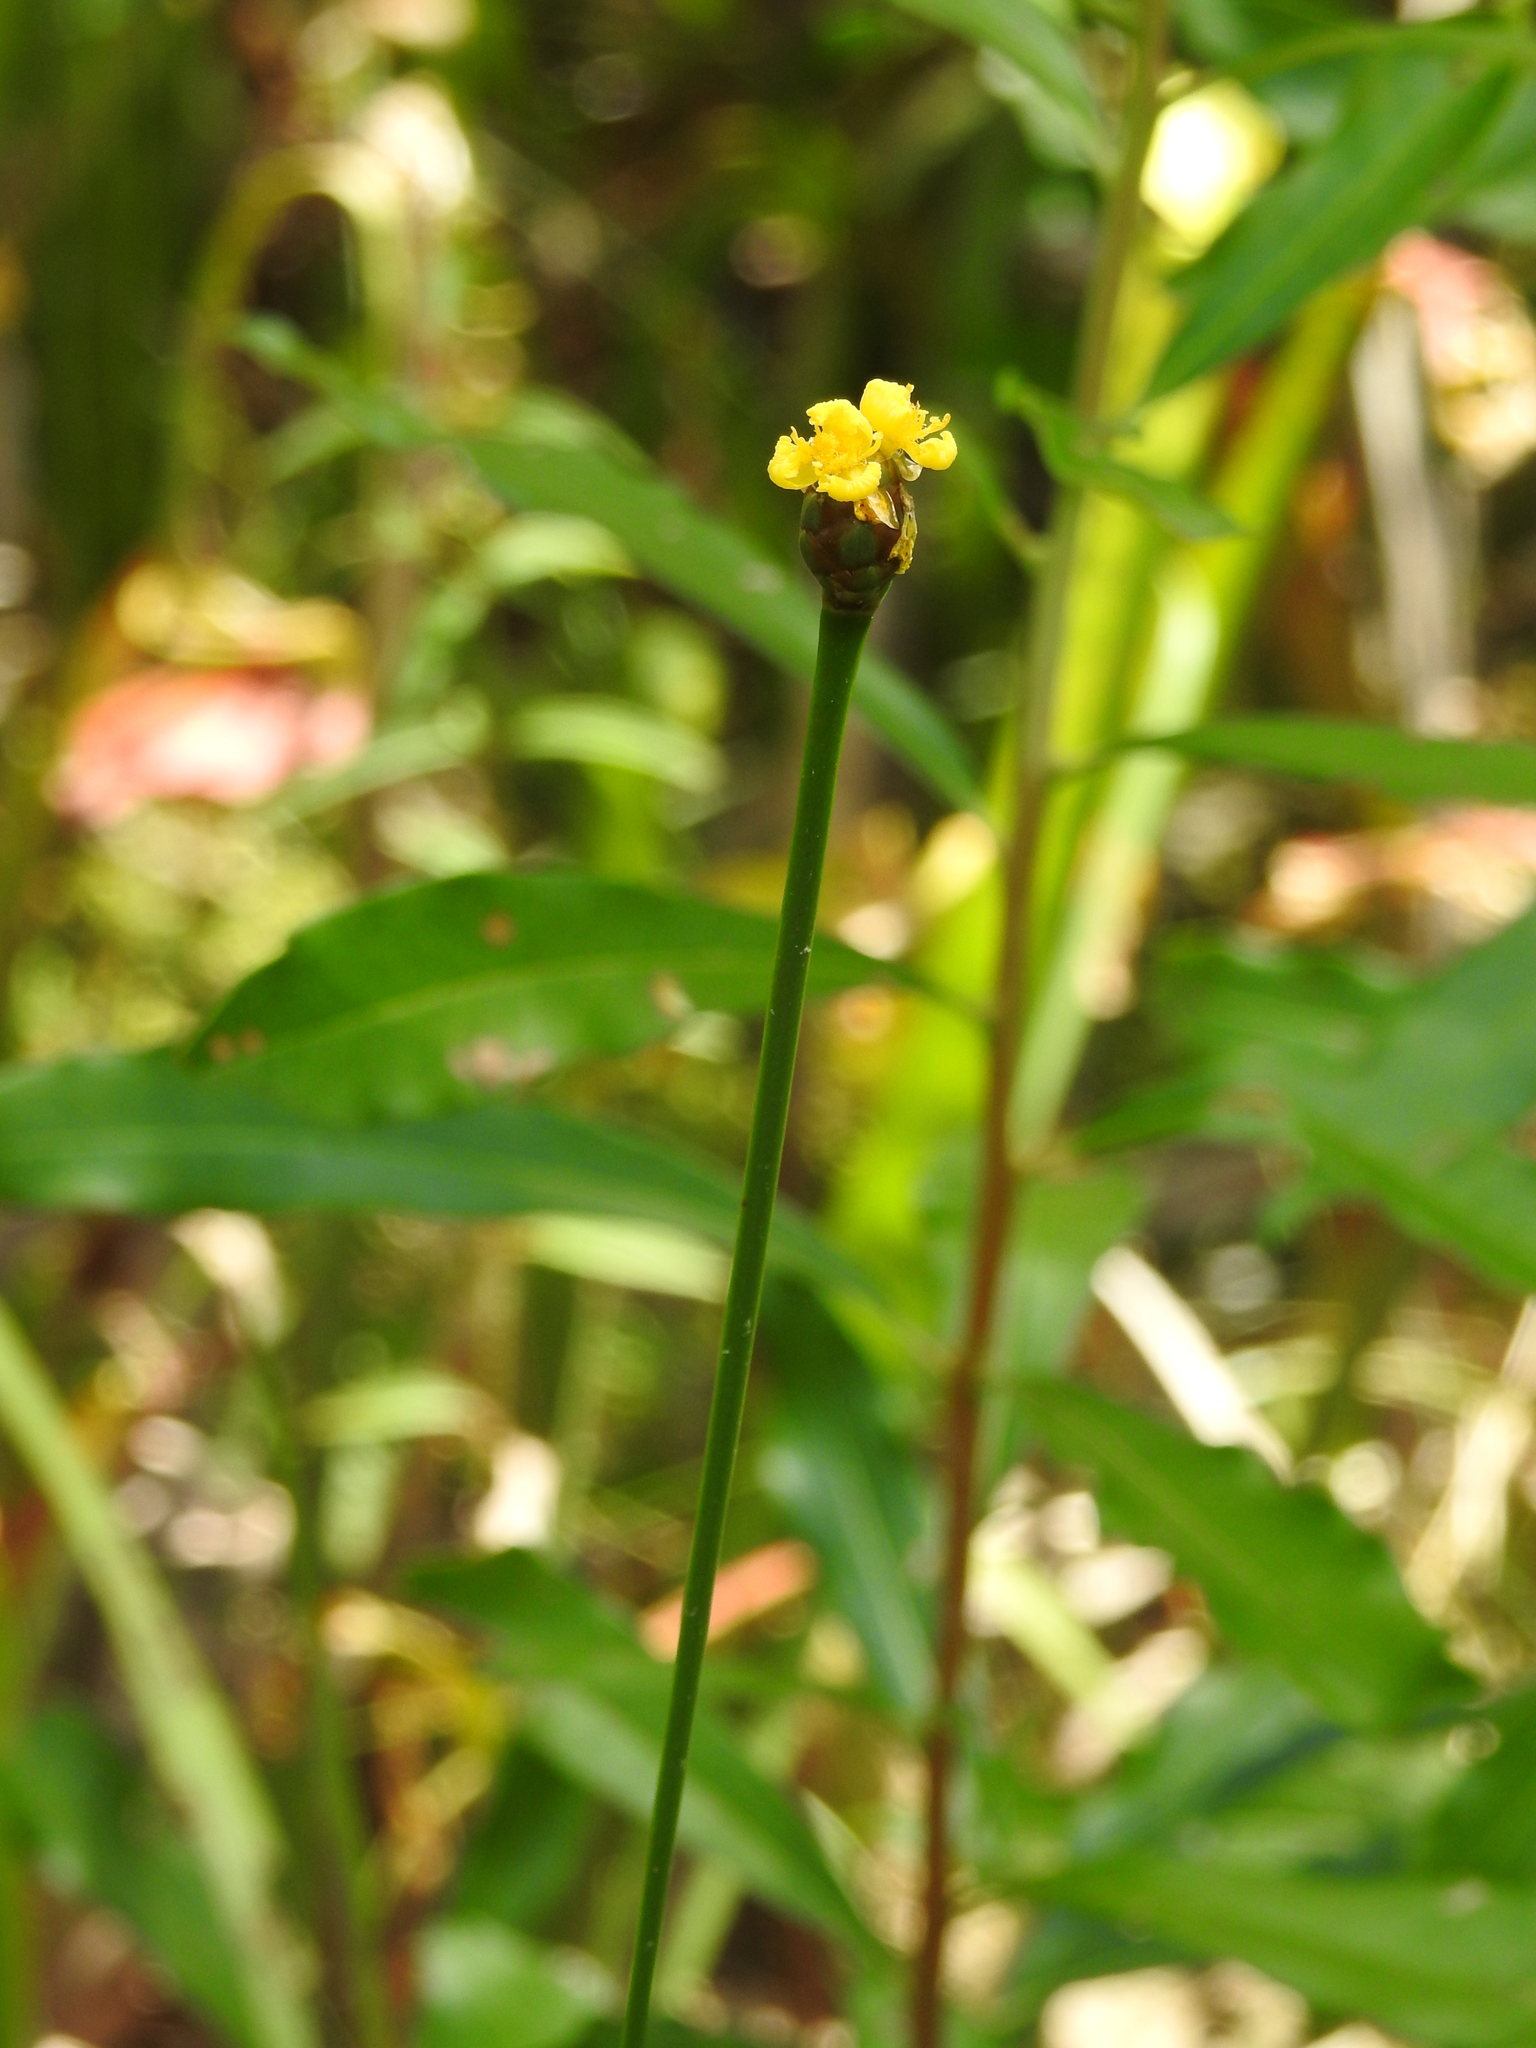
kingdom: Plantae
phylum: Tracheophyta
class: Liliopsida
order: Poales
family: Xyridaceae
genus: Xyris
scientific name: Xyris ambigua
